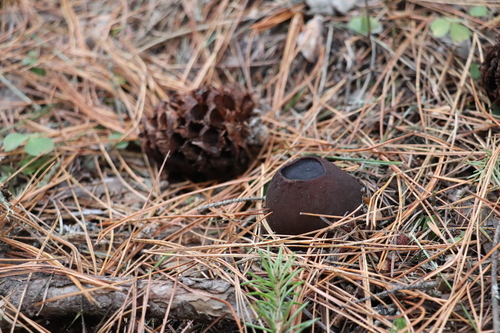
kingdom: Fungi
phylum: Ascomycota
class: Pezizomycetes
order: Pezizales
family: Sarcosomataceae
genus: Sarcosoma
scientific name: Sarcosoma globosum
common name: Charred-pancake cup
